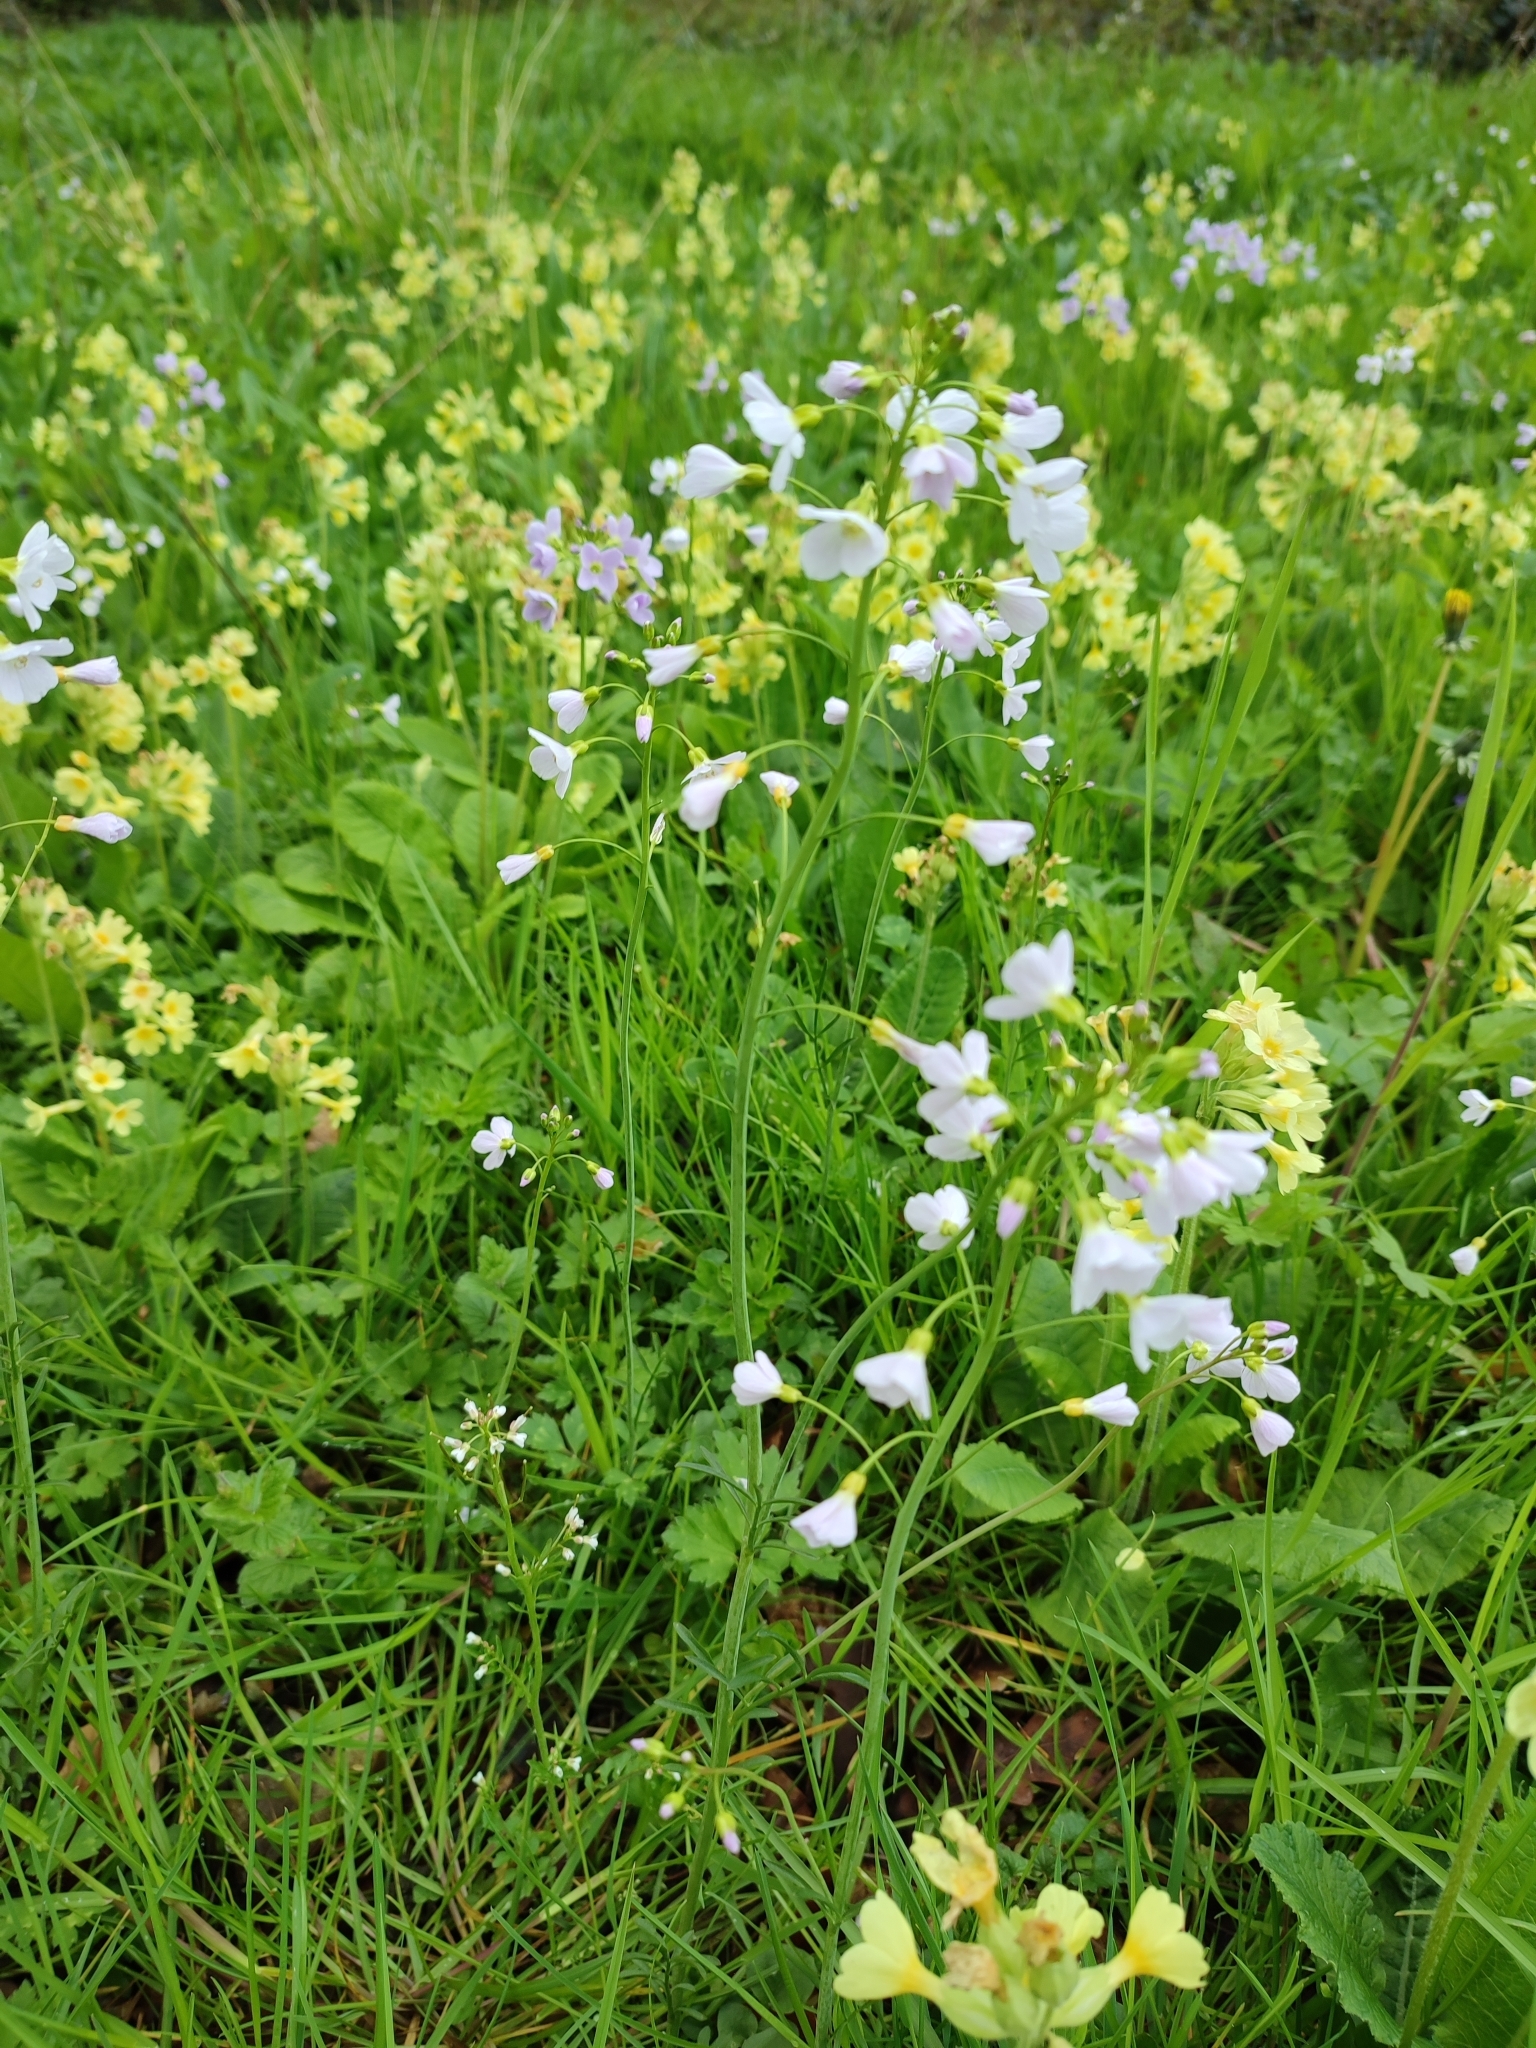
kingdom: Plantae
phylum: Tracheophyta
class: Magnoliopsida
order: Brassicales
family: Brassicaceae
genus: Cardamine
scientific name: Cardamine pratensis
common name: Cuckoo flower
